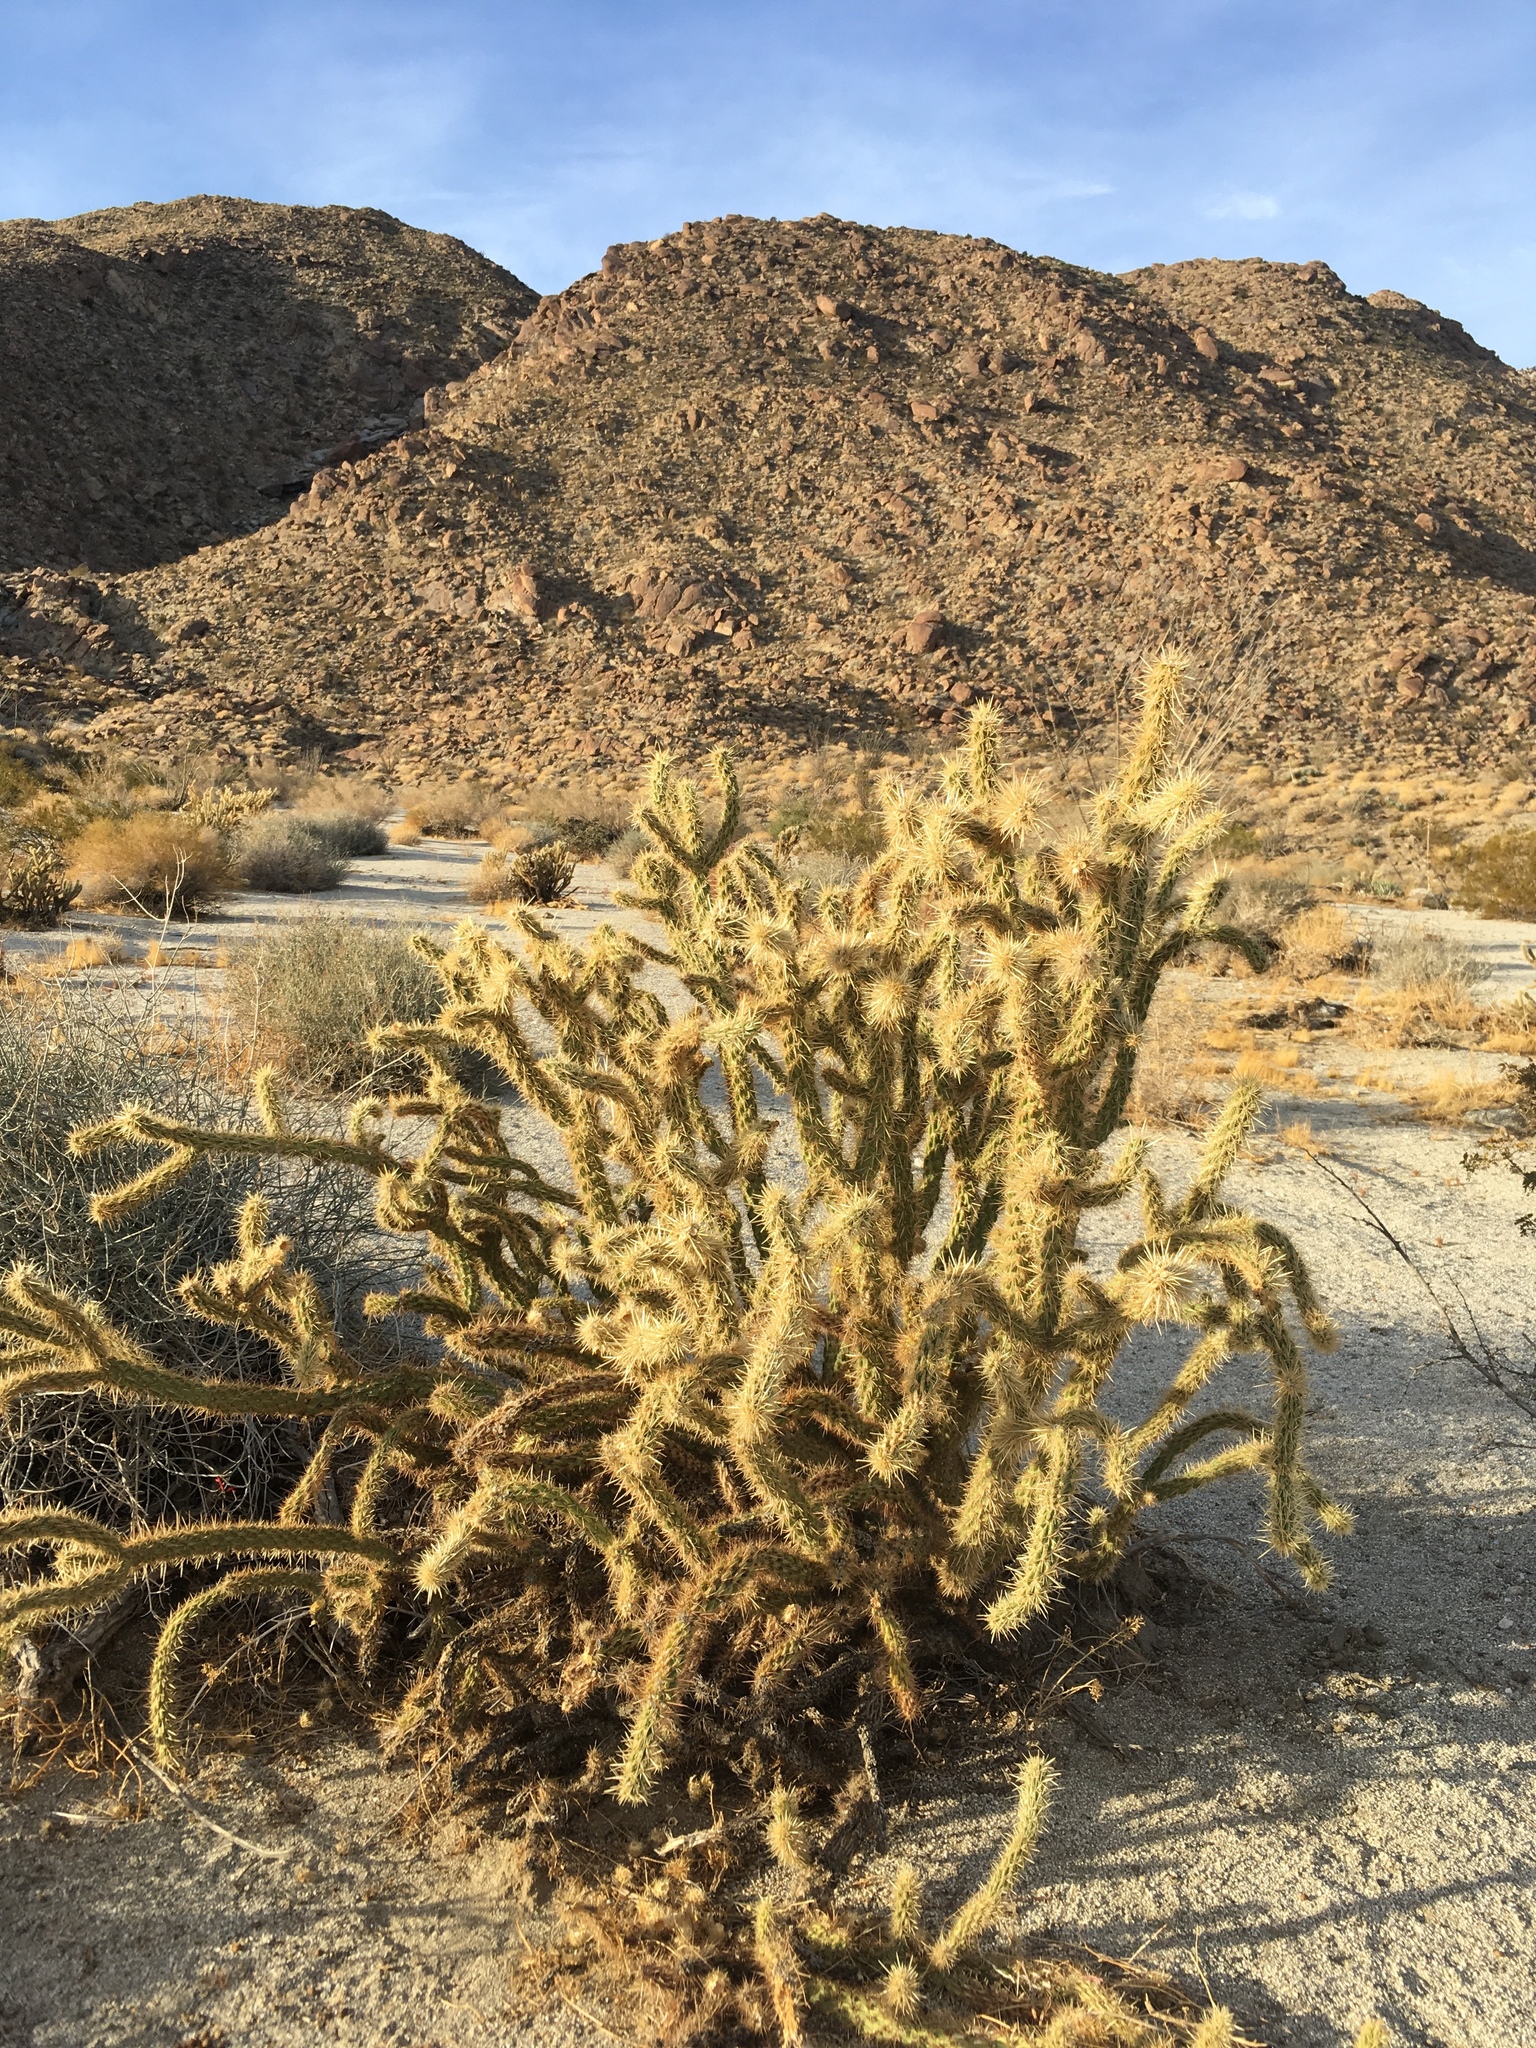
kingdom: Plantae
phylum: Tracheophyta
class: Magnoliopsida
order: Caryophyllales
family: Cactaceae
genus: Cylindropuntia
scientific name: Cylindropuntia ganderi
